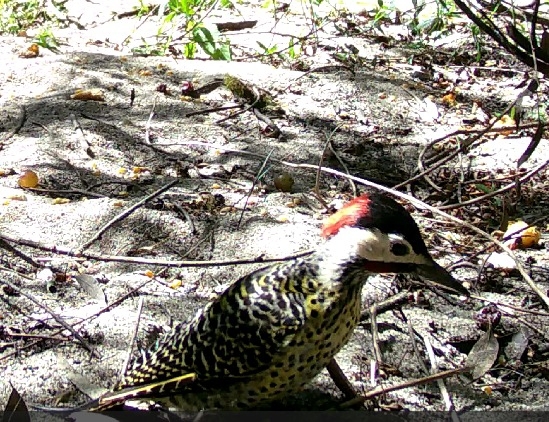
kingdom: Animalia
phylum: Chordata
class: Aves
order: Piciformes
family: Picidae
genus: Colaptes
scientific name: Colaptes melanochloros
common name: Green-barred woodpecker
